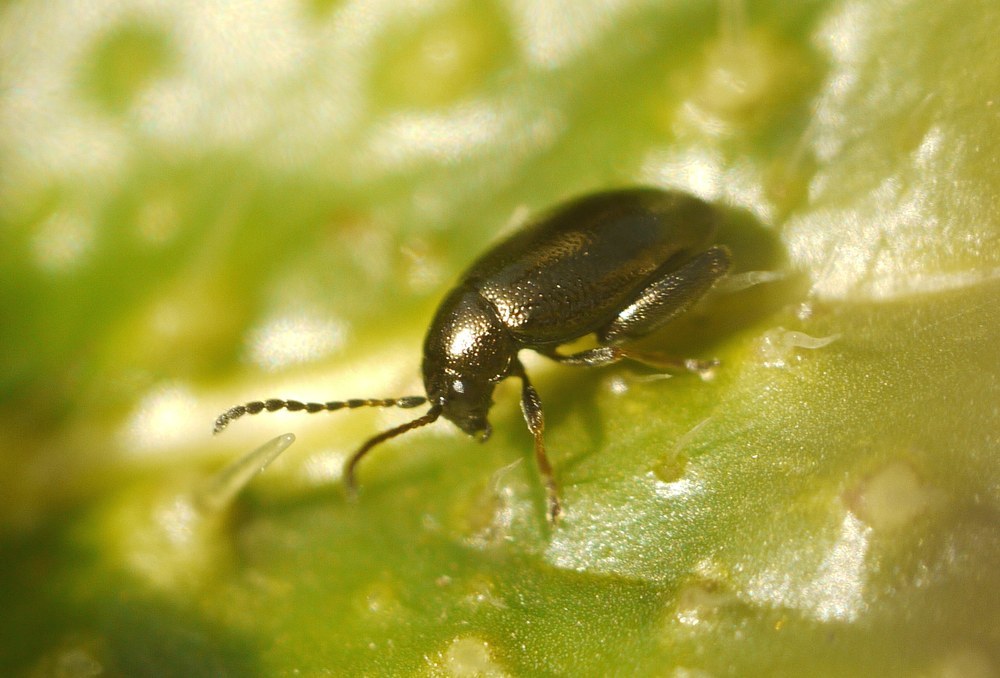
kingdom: Animalia
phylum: Arthropoda
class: Insecta
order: Coleoptera
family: Chrysomelidae
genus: Longitarsus
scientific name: Longitarsus echii
